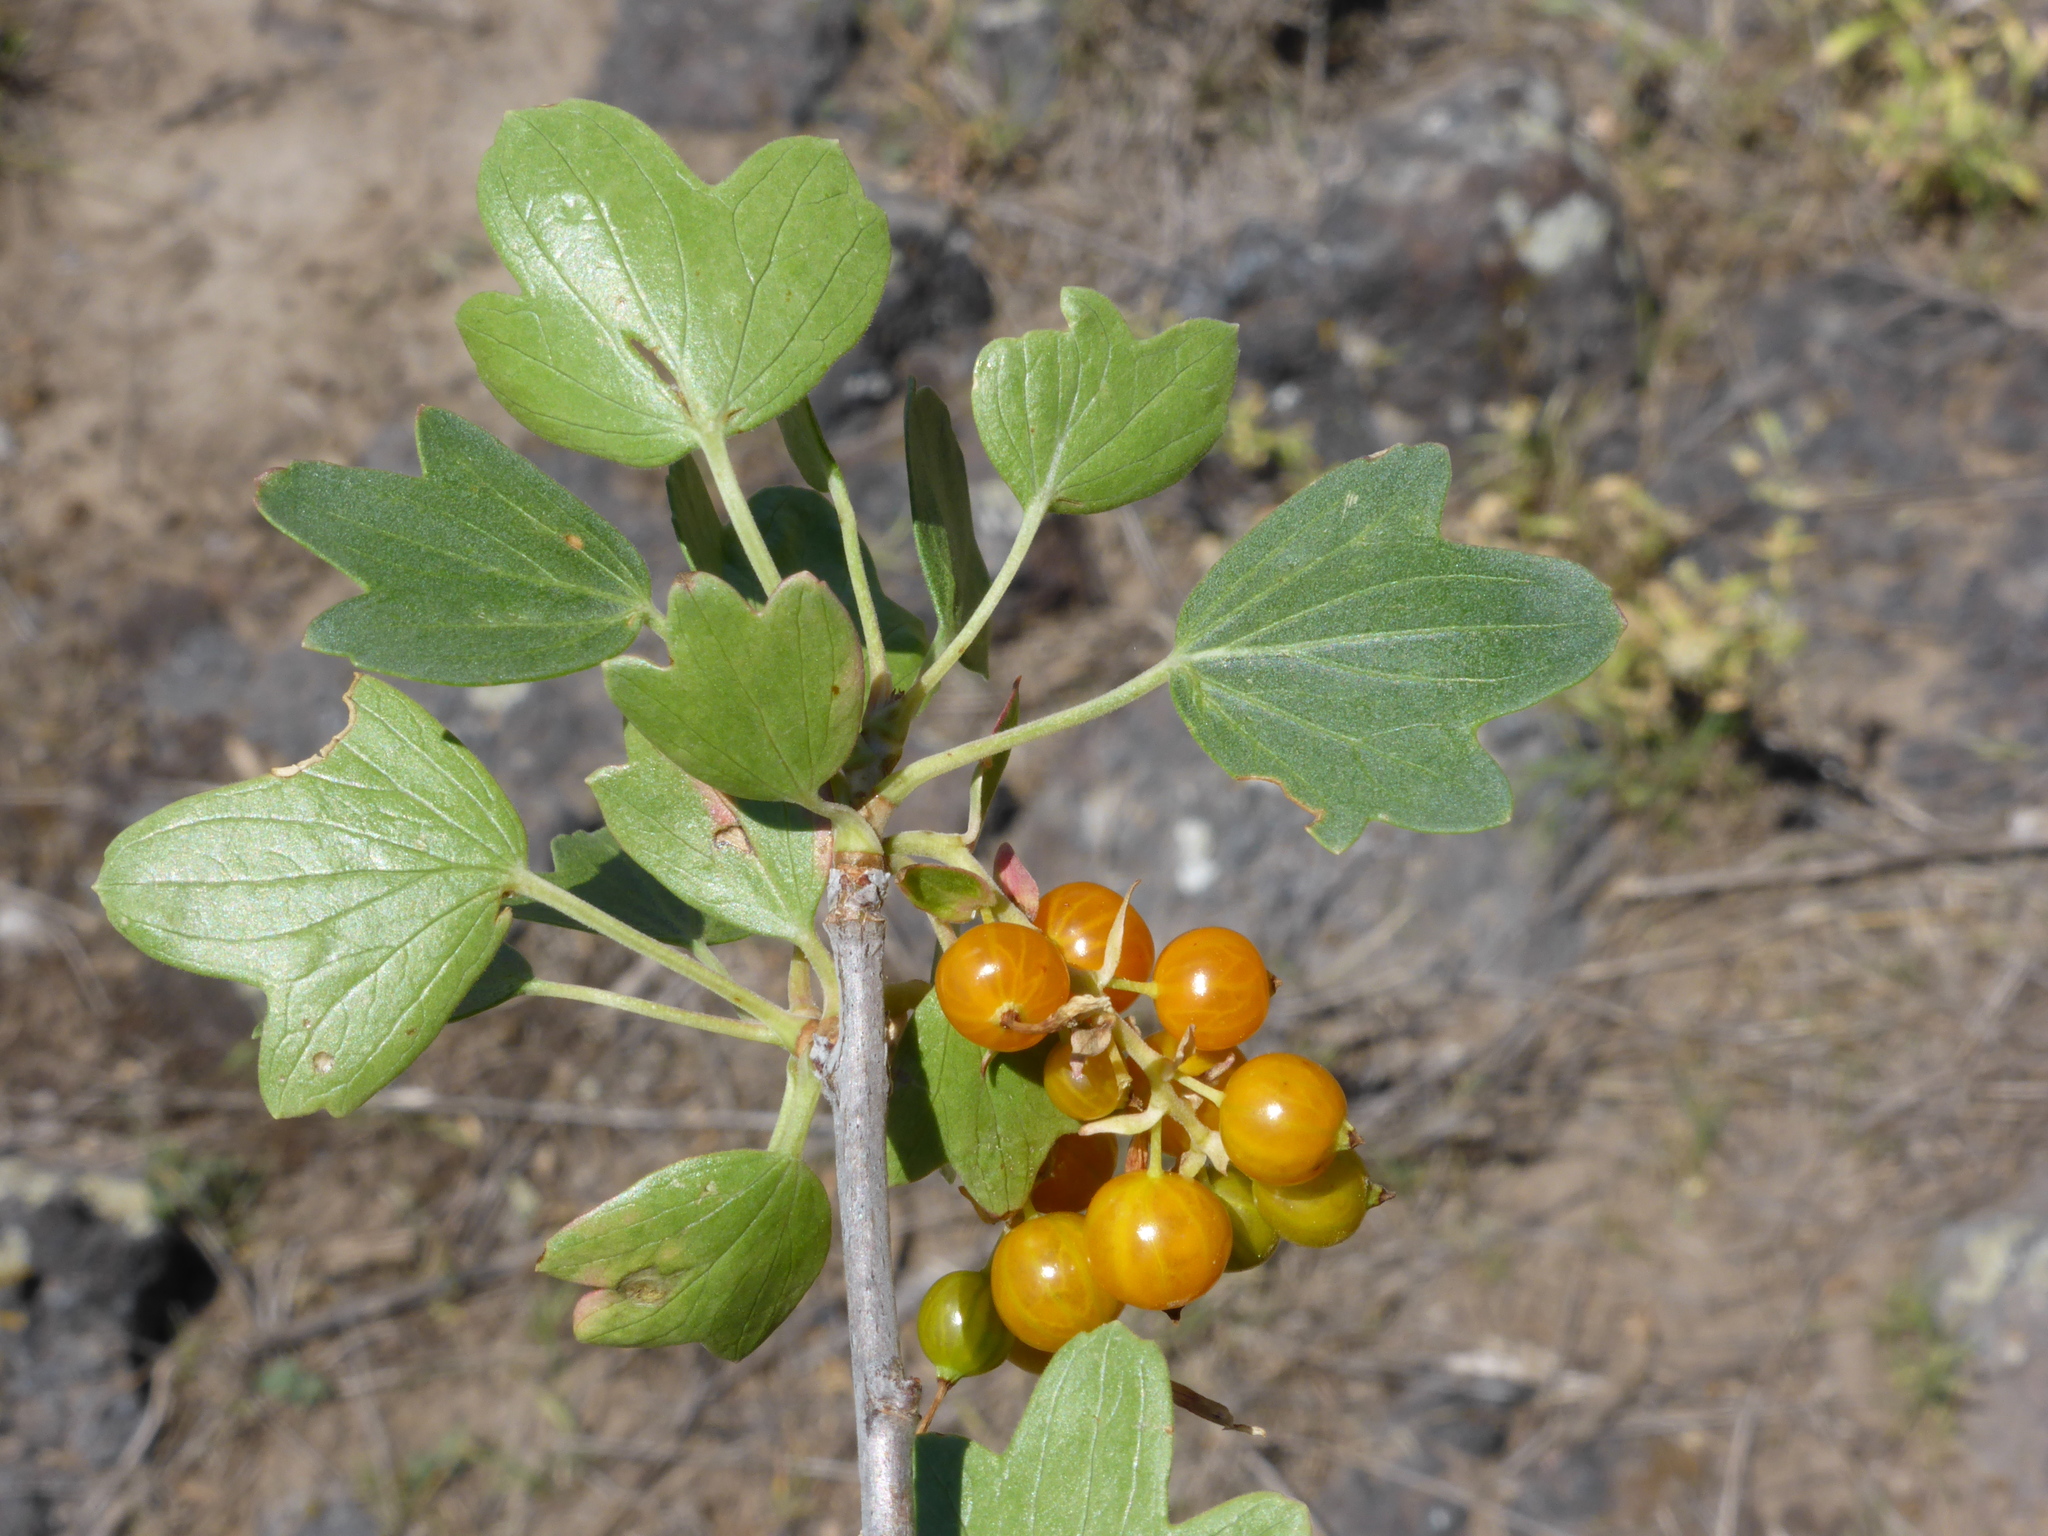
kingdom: Plantae
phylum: Tracheophyta
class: Magnoliopsida
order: Saxifragales
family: Grossulariaceae
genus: Ribes
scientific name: Ribes aureum
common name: Golden currant
